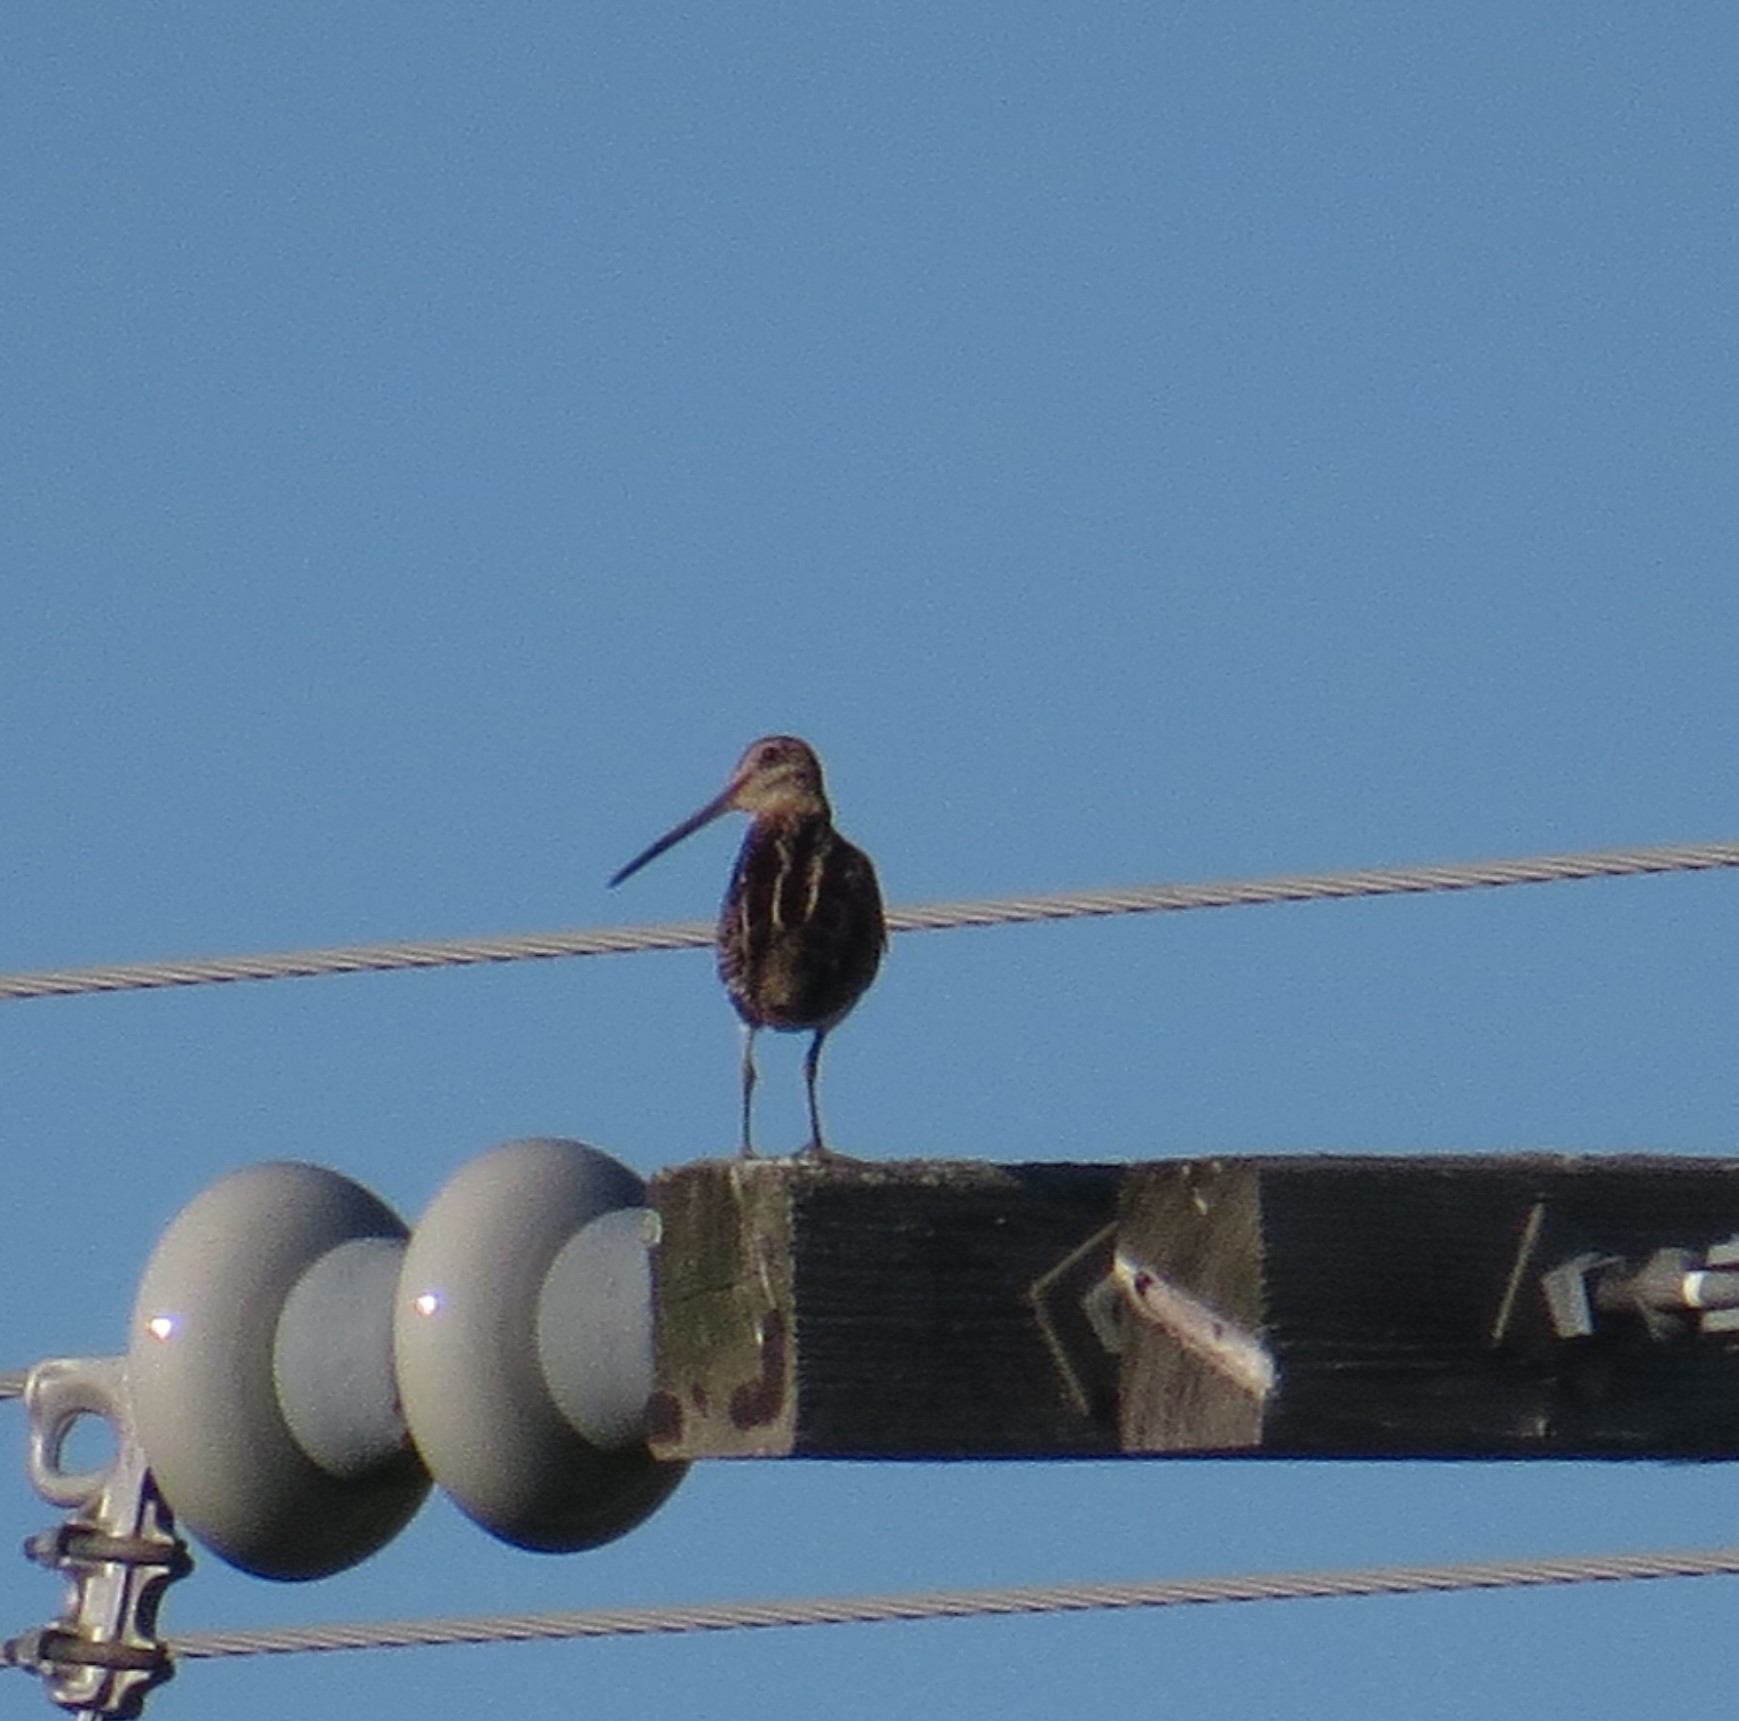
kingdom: Animalia
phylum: Chordata
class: Aves
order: Charadriiformes
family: Scolopacidae
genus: Gallinago
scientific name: Gallinago delicata
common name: Wilson's snipe
